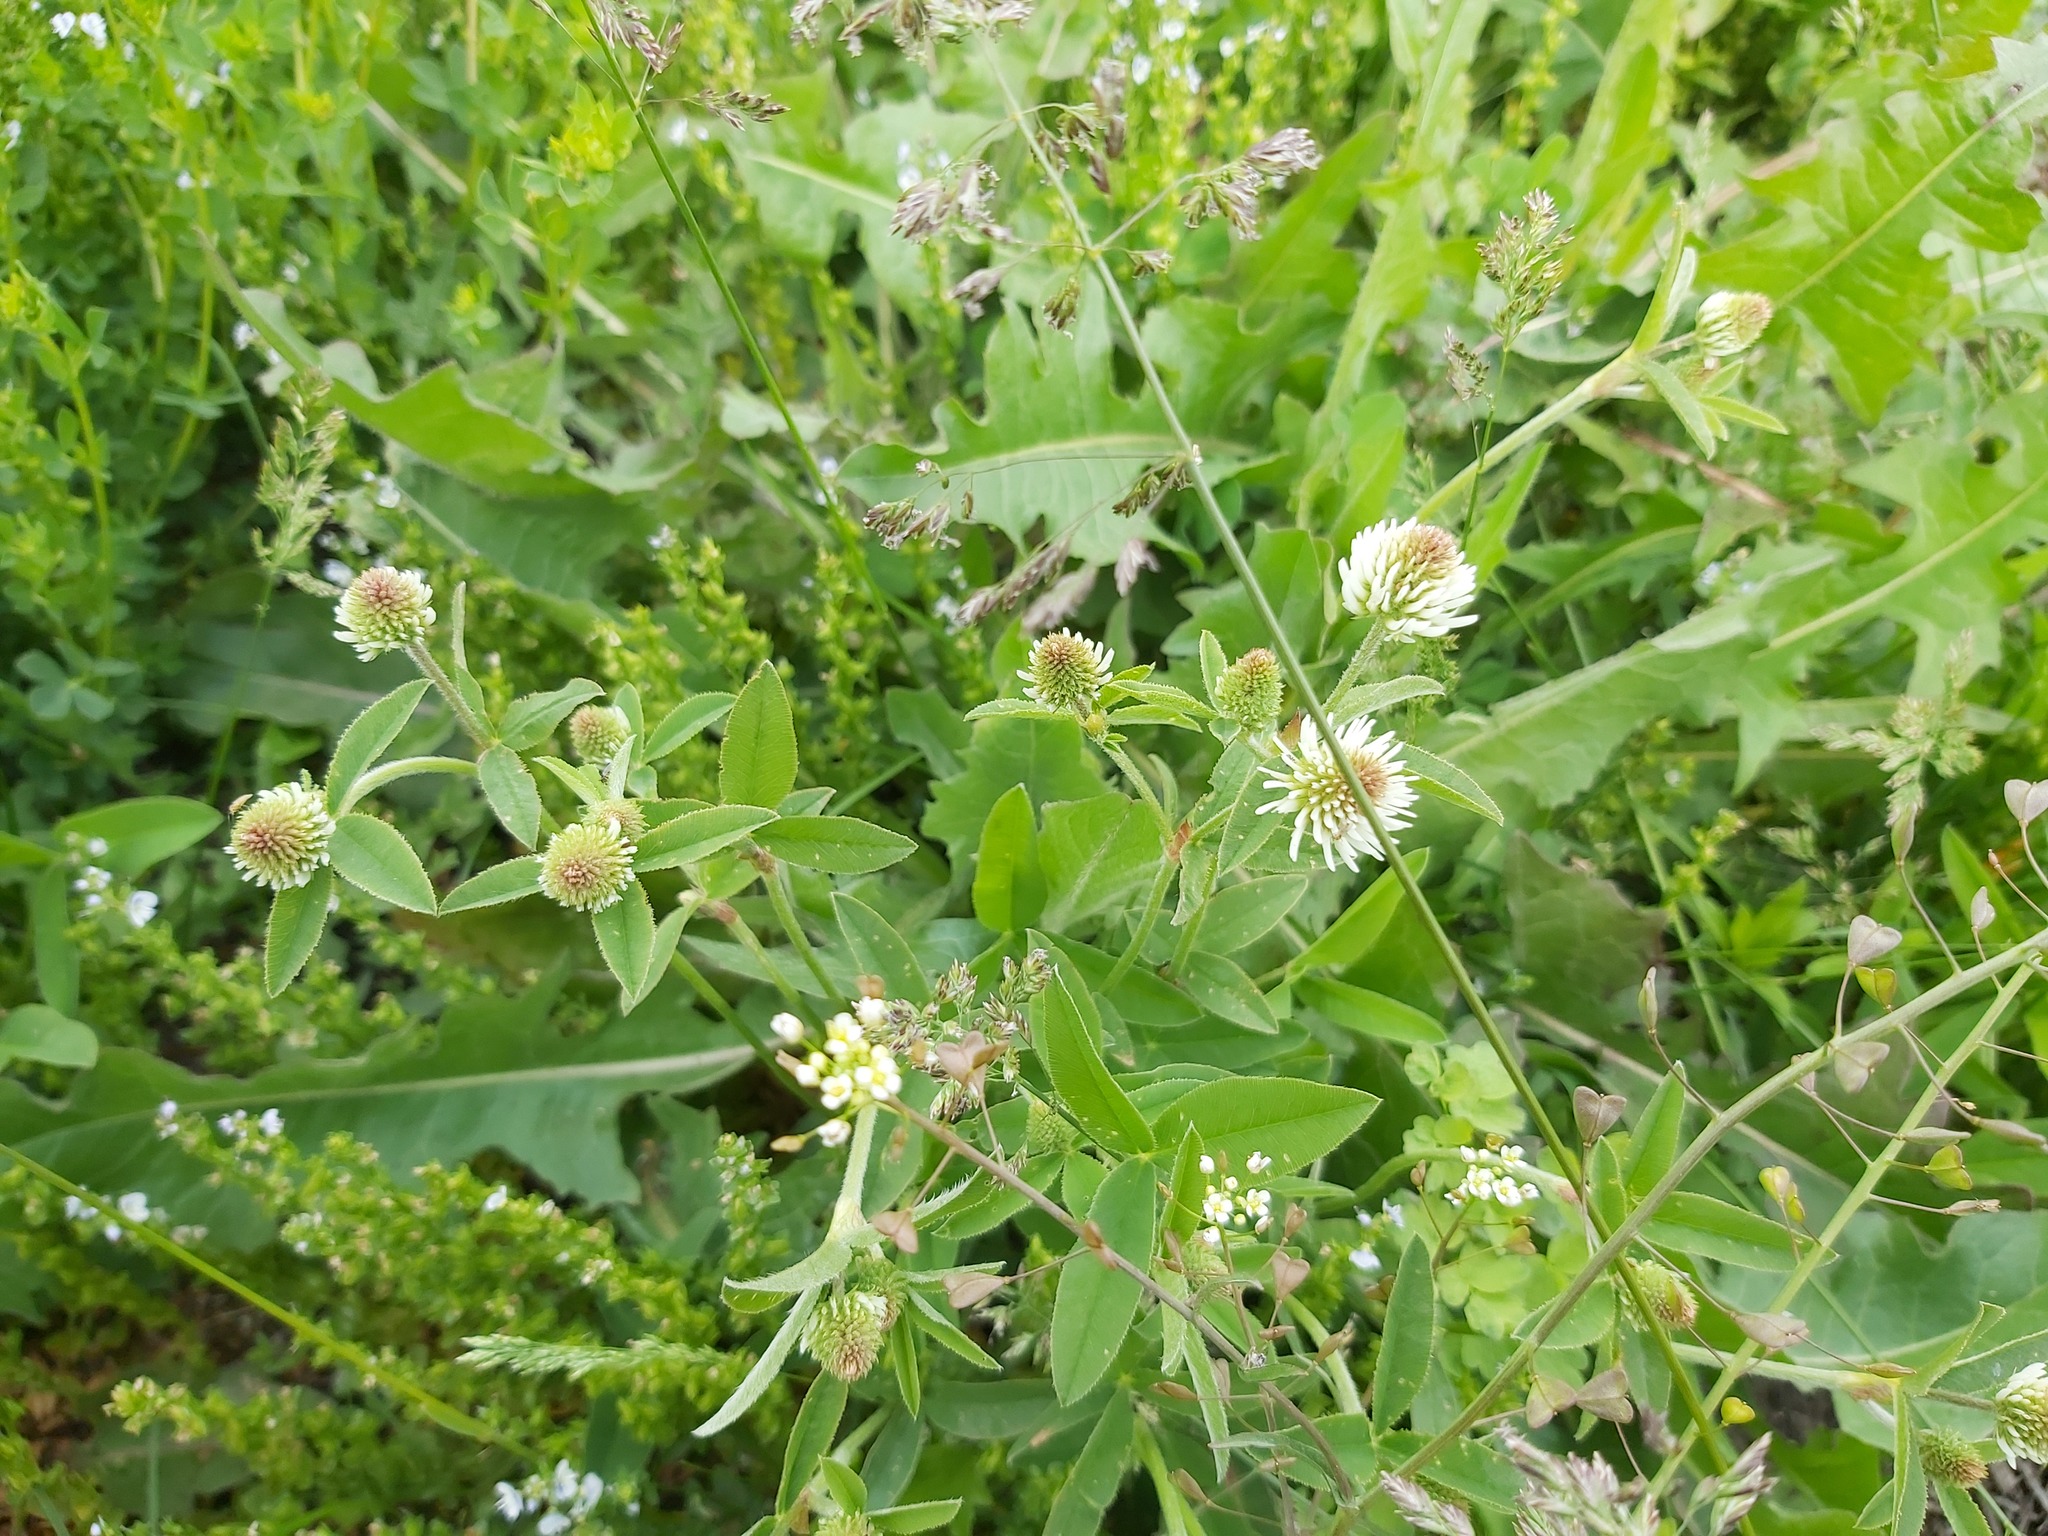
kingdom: Plantae
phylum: Tracheophyta
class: Magnoliopsida
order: Fabales
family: Fabaceae
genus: Trifolium
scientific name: Trifolium montanum
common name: Mountain clover
